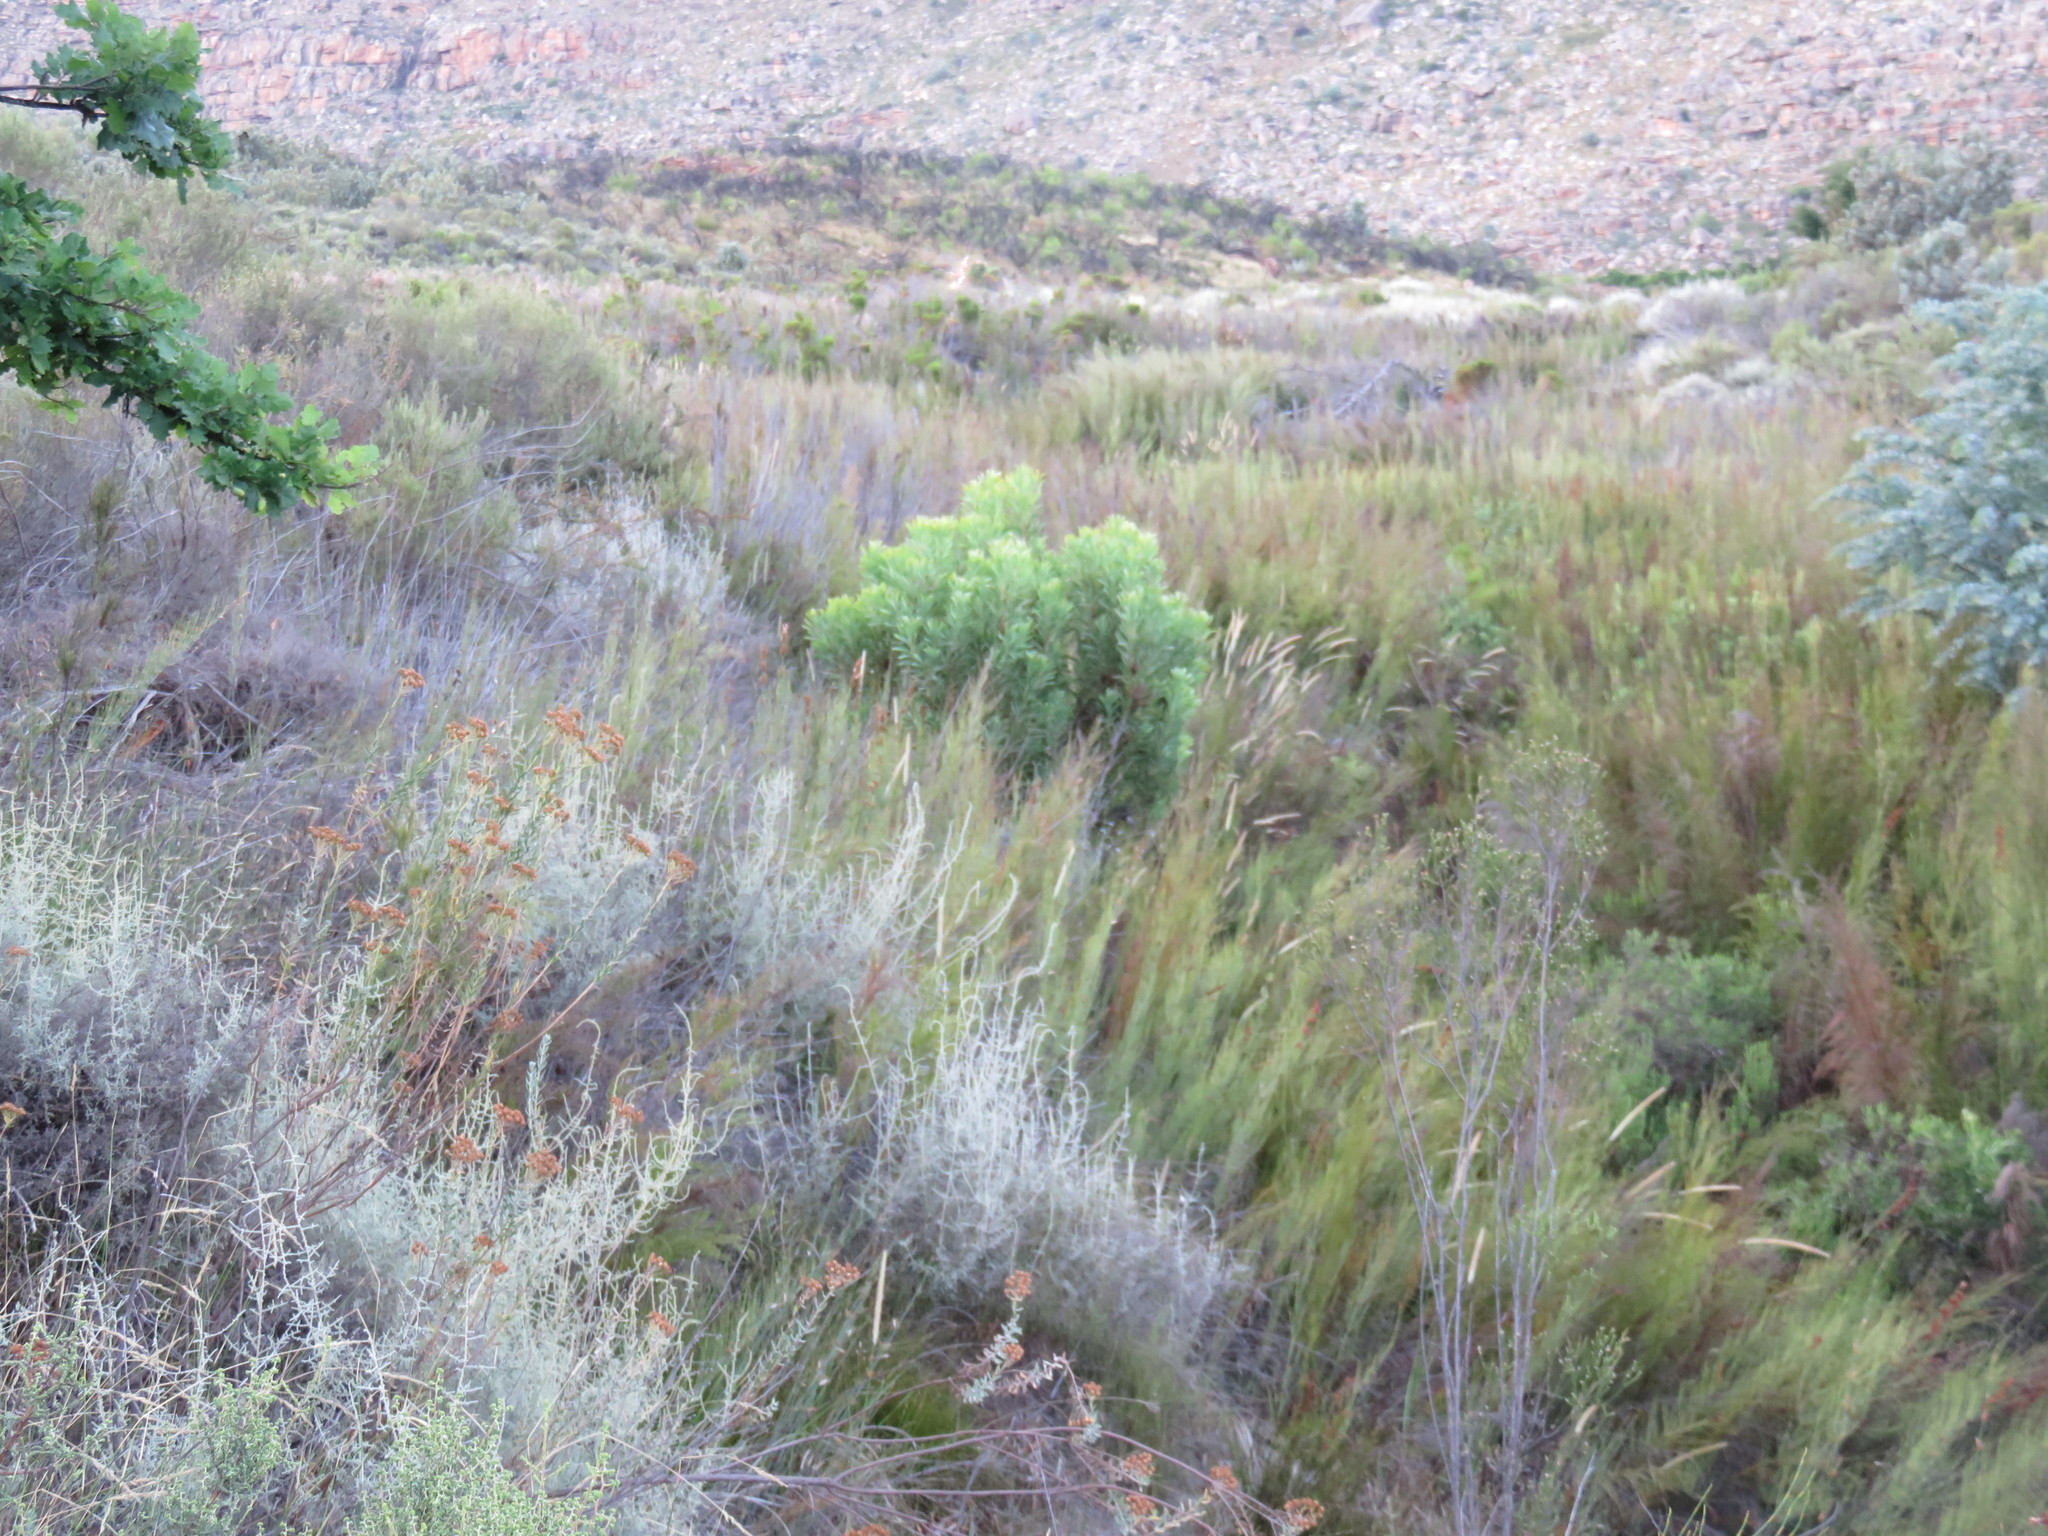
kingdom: Plantae
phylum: Tracheophyta
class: Magnoliopsida
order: Proteales
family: Proteaceae
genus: Protea
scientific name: Protea repens
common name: Sugarbush
